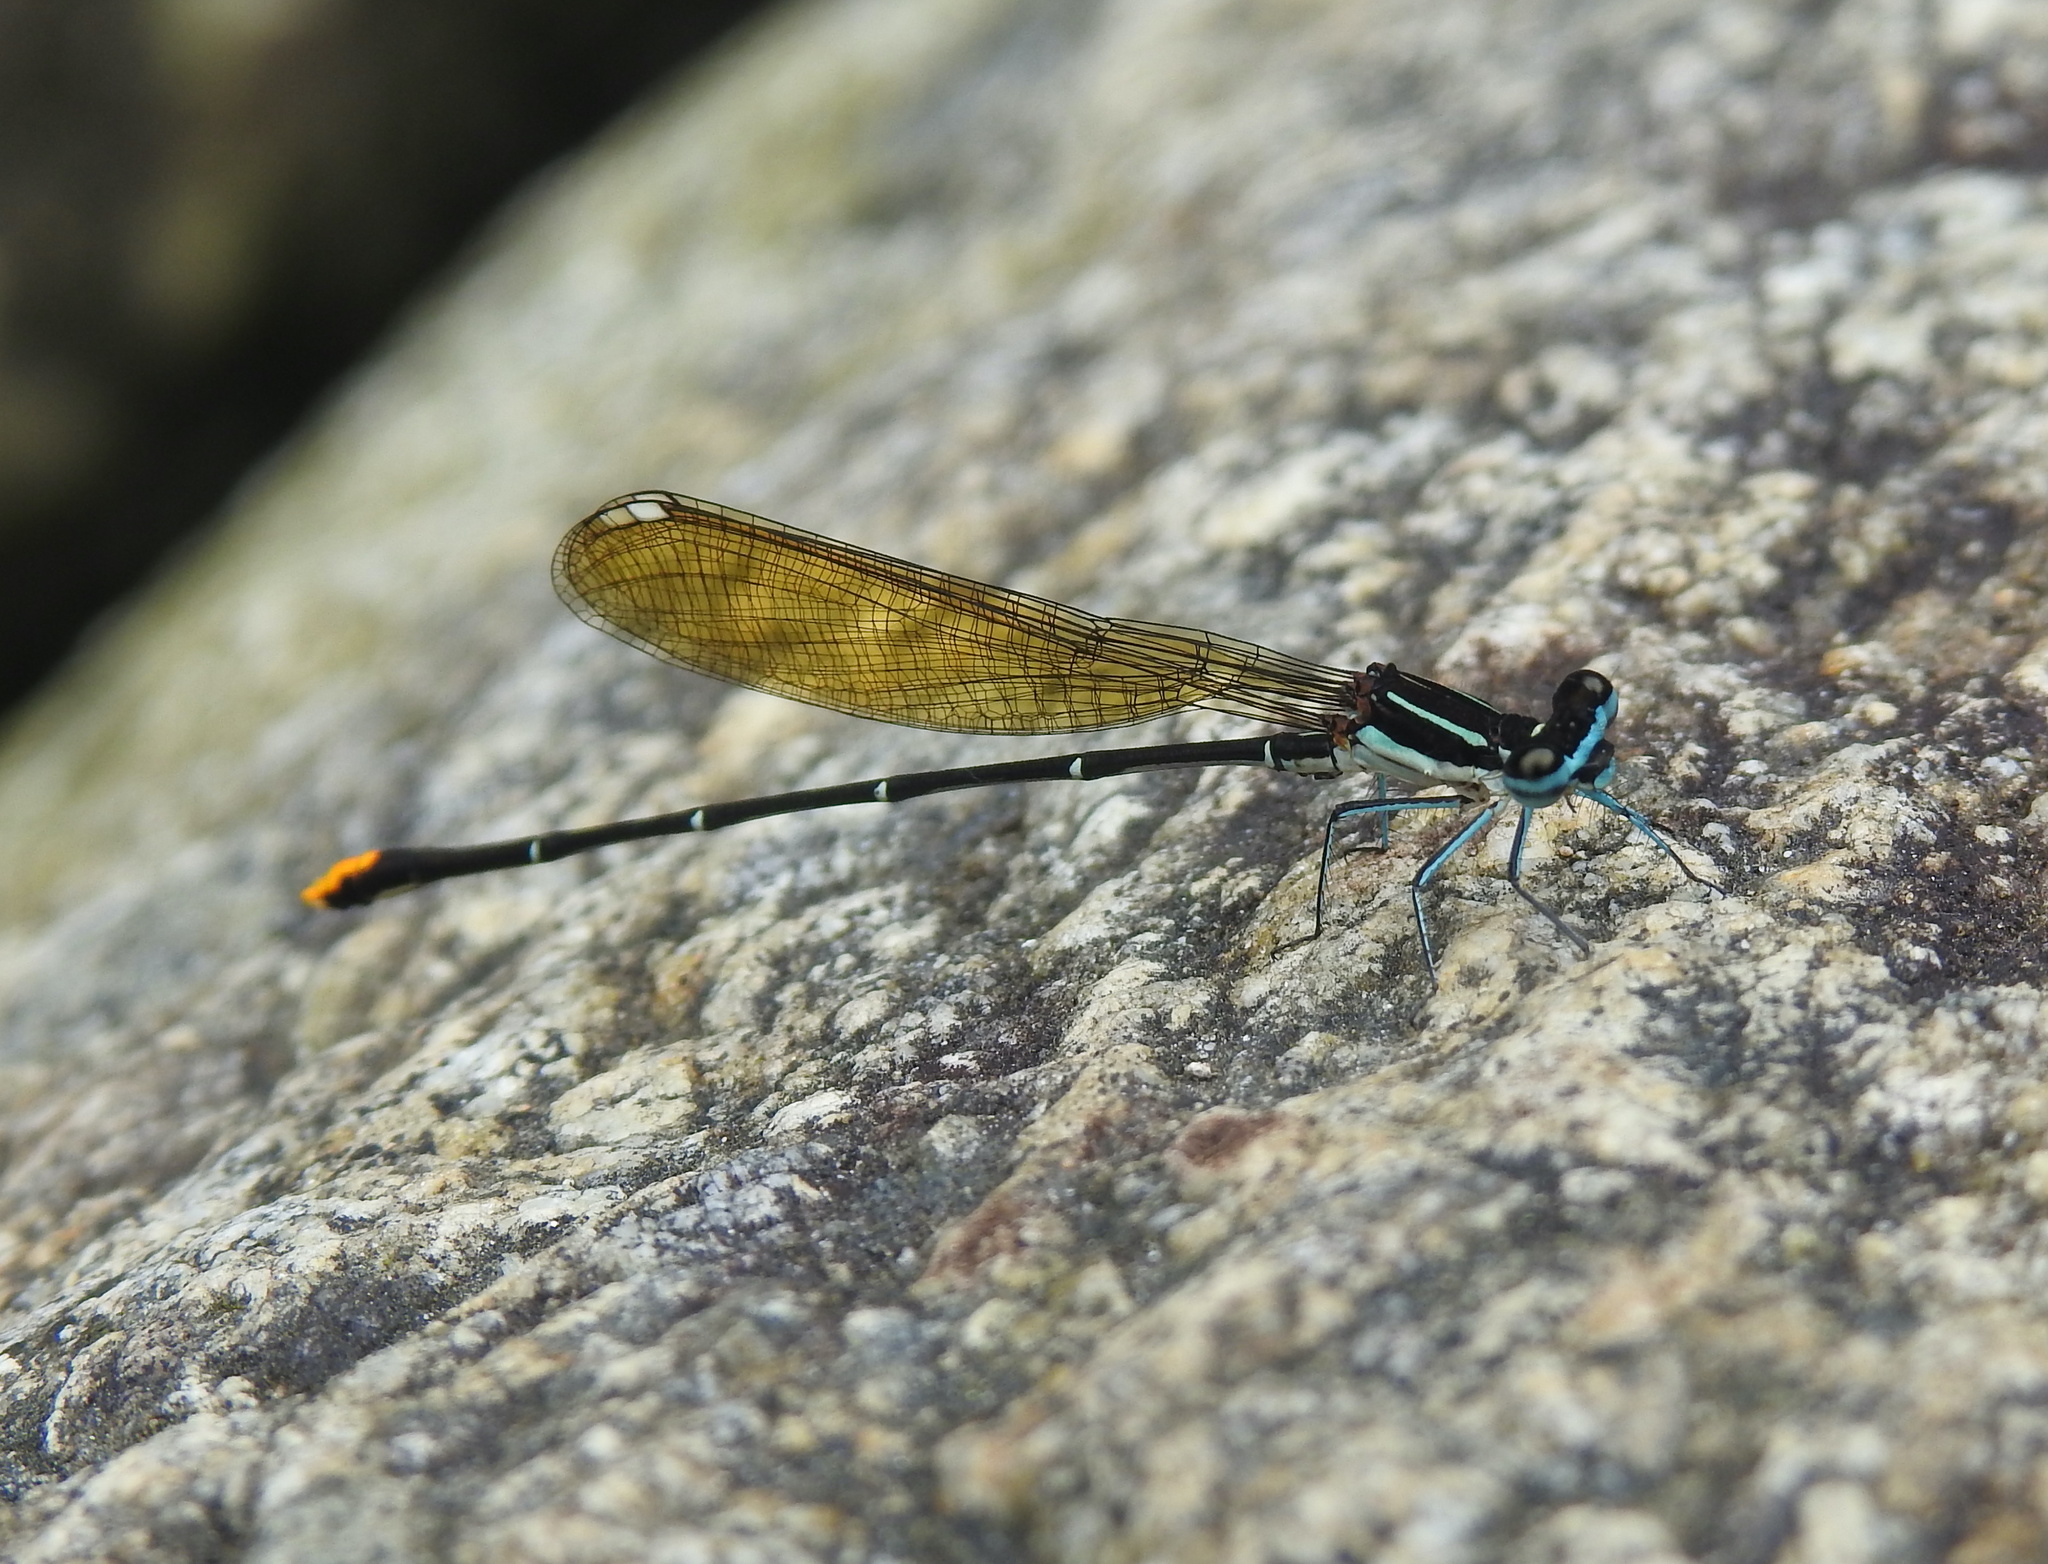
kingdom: Animalia
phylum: Arthropoda
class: Insecta
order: Odonata
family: Platycnemididae
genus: Allocnemis
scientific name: Allocnemis leucosticta
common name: Goldtail
